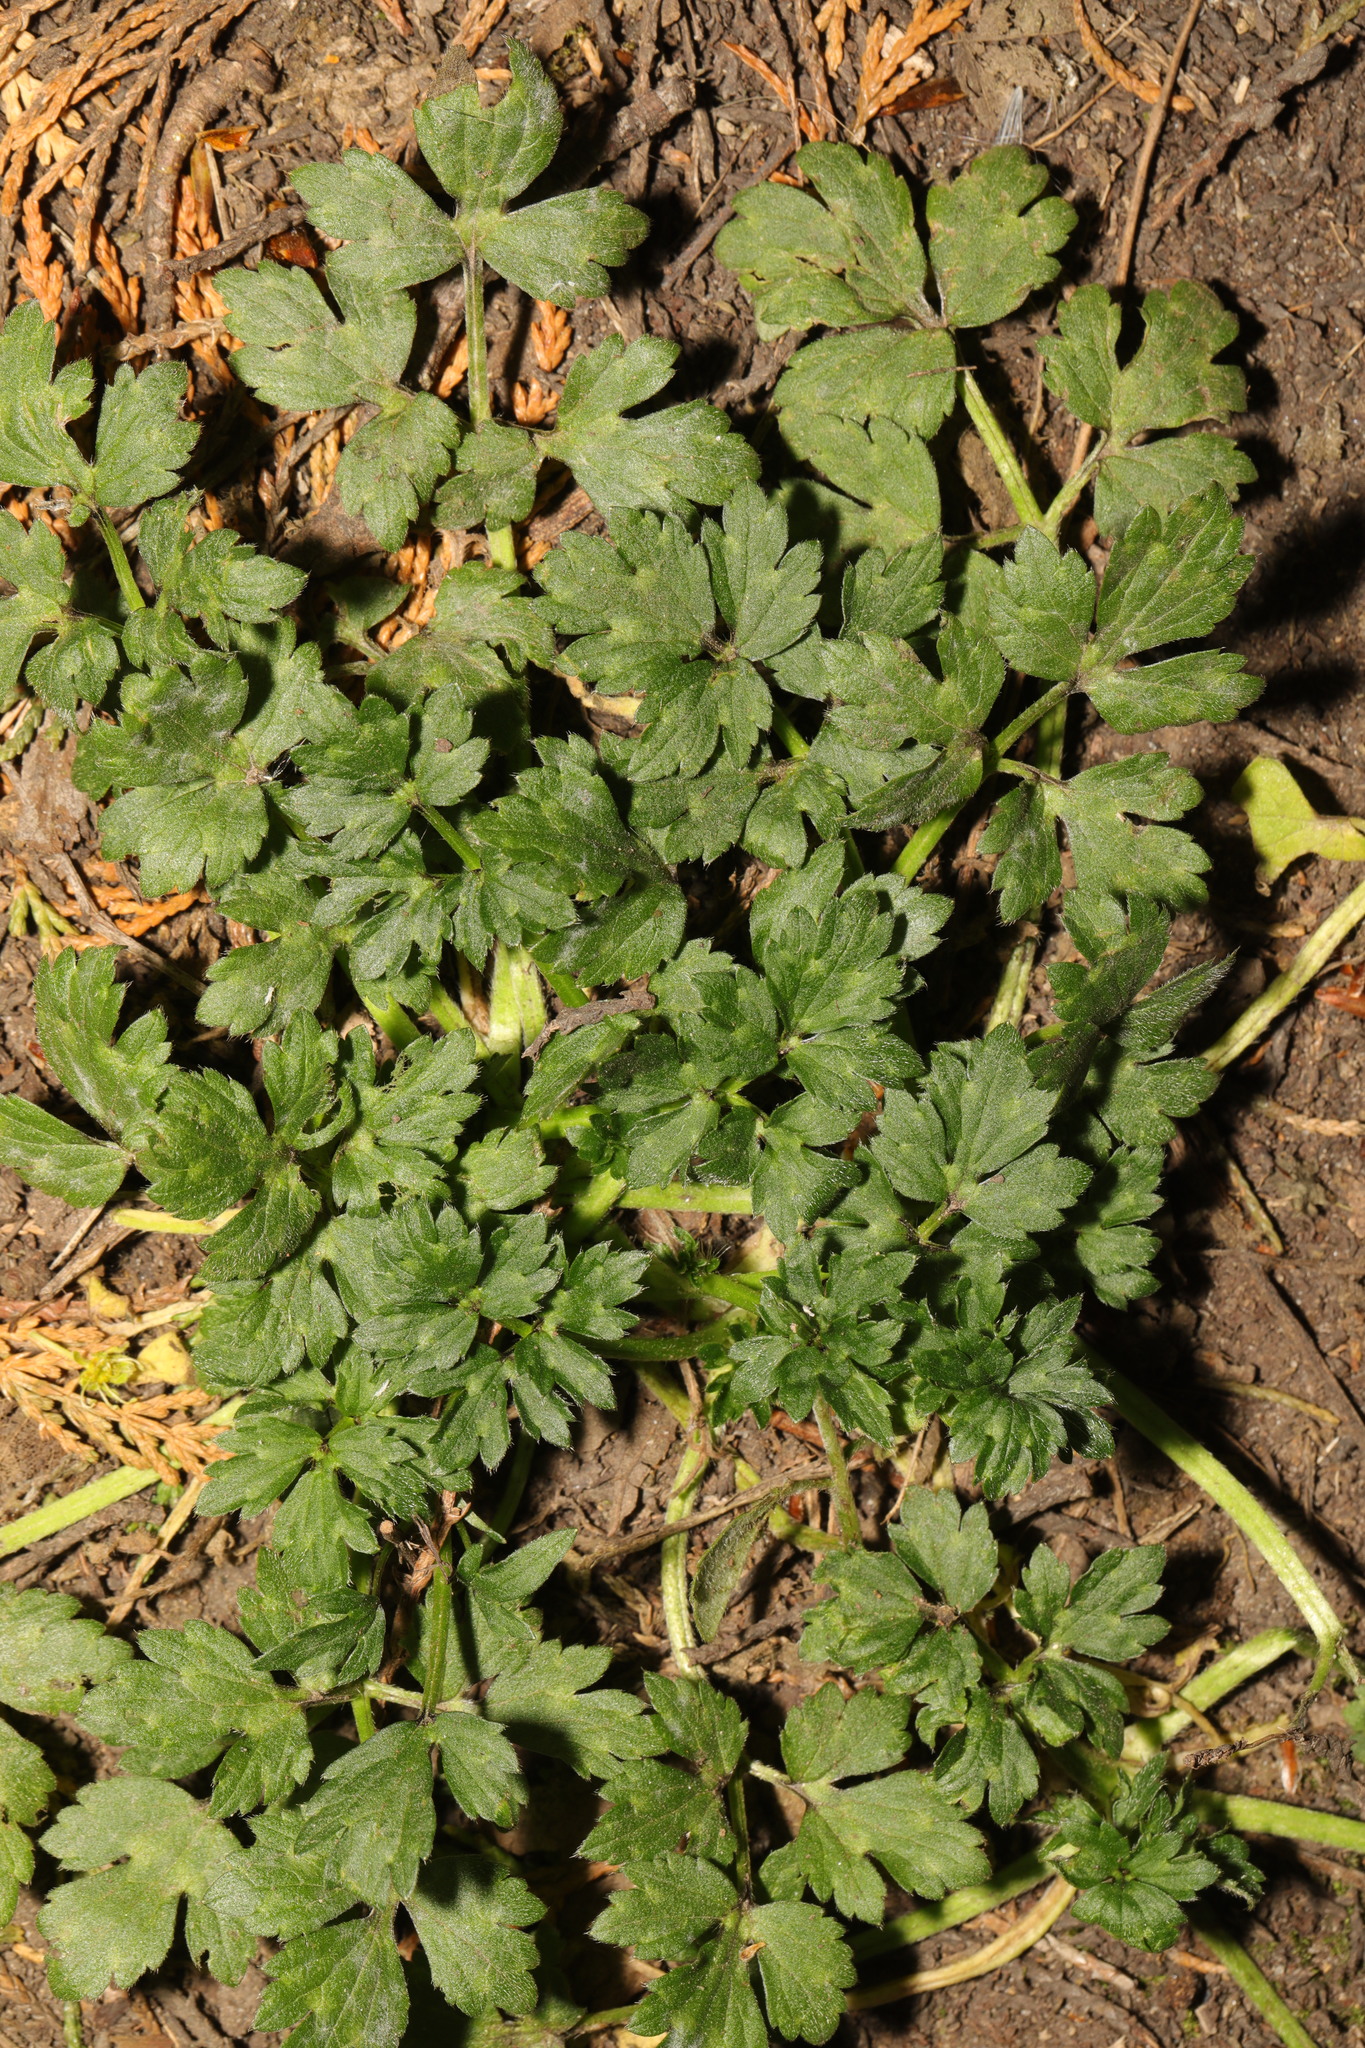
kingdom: Plantae
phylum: Tracheophyta
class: Magnoliopsida
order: Ranunculales
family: Ranunculaceae
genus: Ranunculus
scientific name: Ranunculus repens
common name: Creeping buttercup
